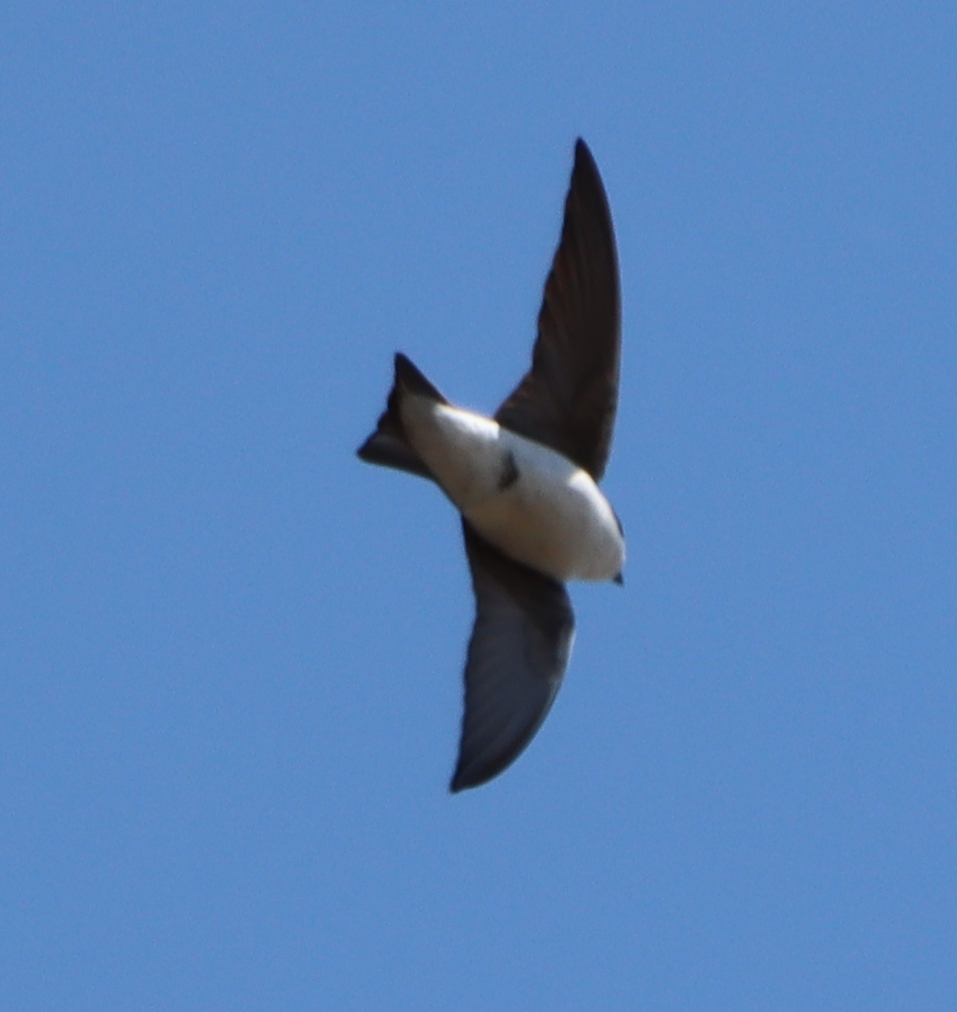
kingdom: Animalia
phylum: Chordata
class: Aves
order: Passeriformes
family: Hirundinidae
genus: Tachycineta
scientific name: Tachycineta bicolor
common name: Tree swallow
